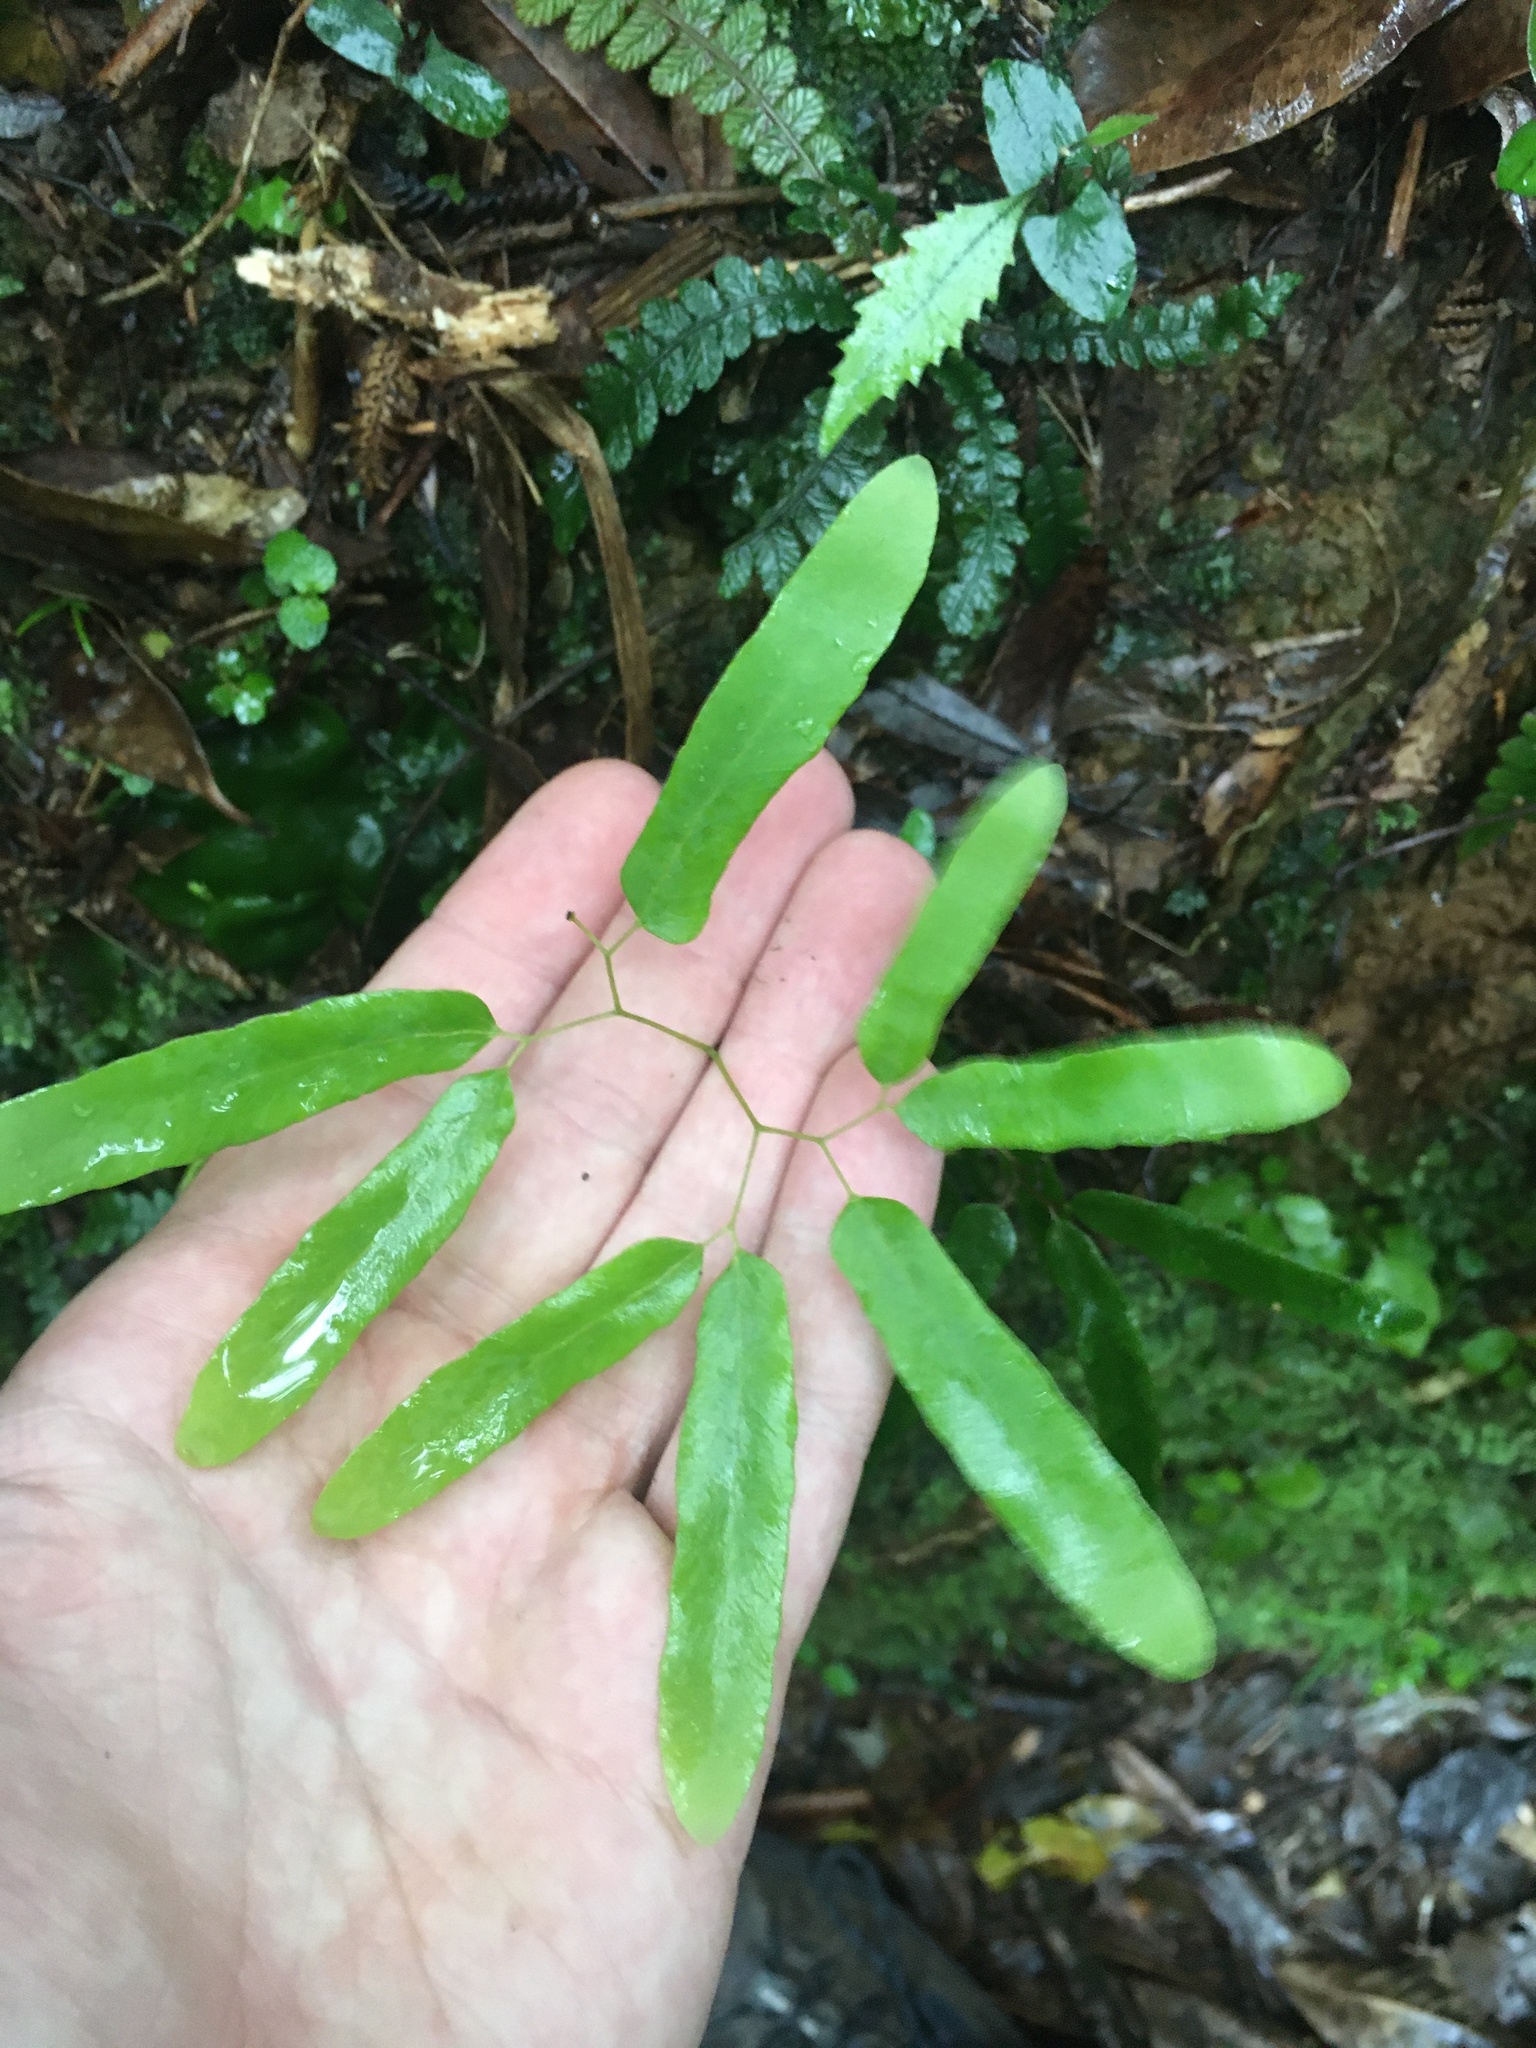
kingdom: Plantae
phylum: Tracheophyta
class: Polypodiopsida
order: Schizaeales
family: Lygodiaceae
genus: Lygodium
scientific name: Lygodium articulatum
